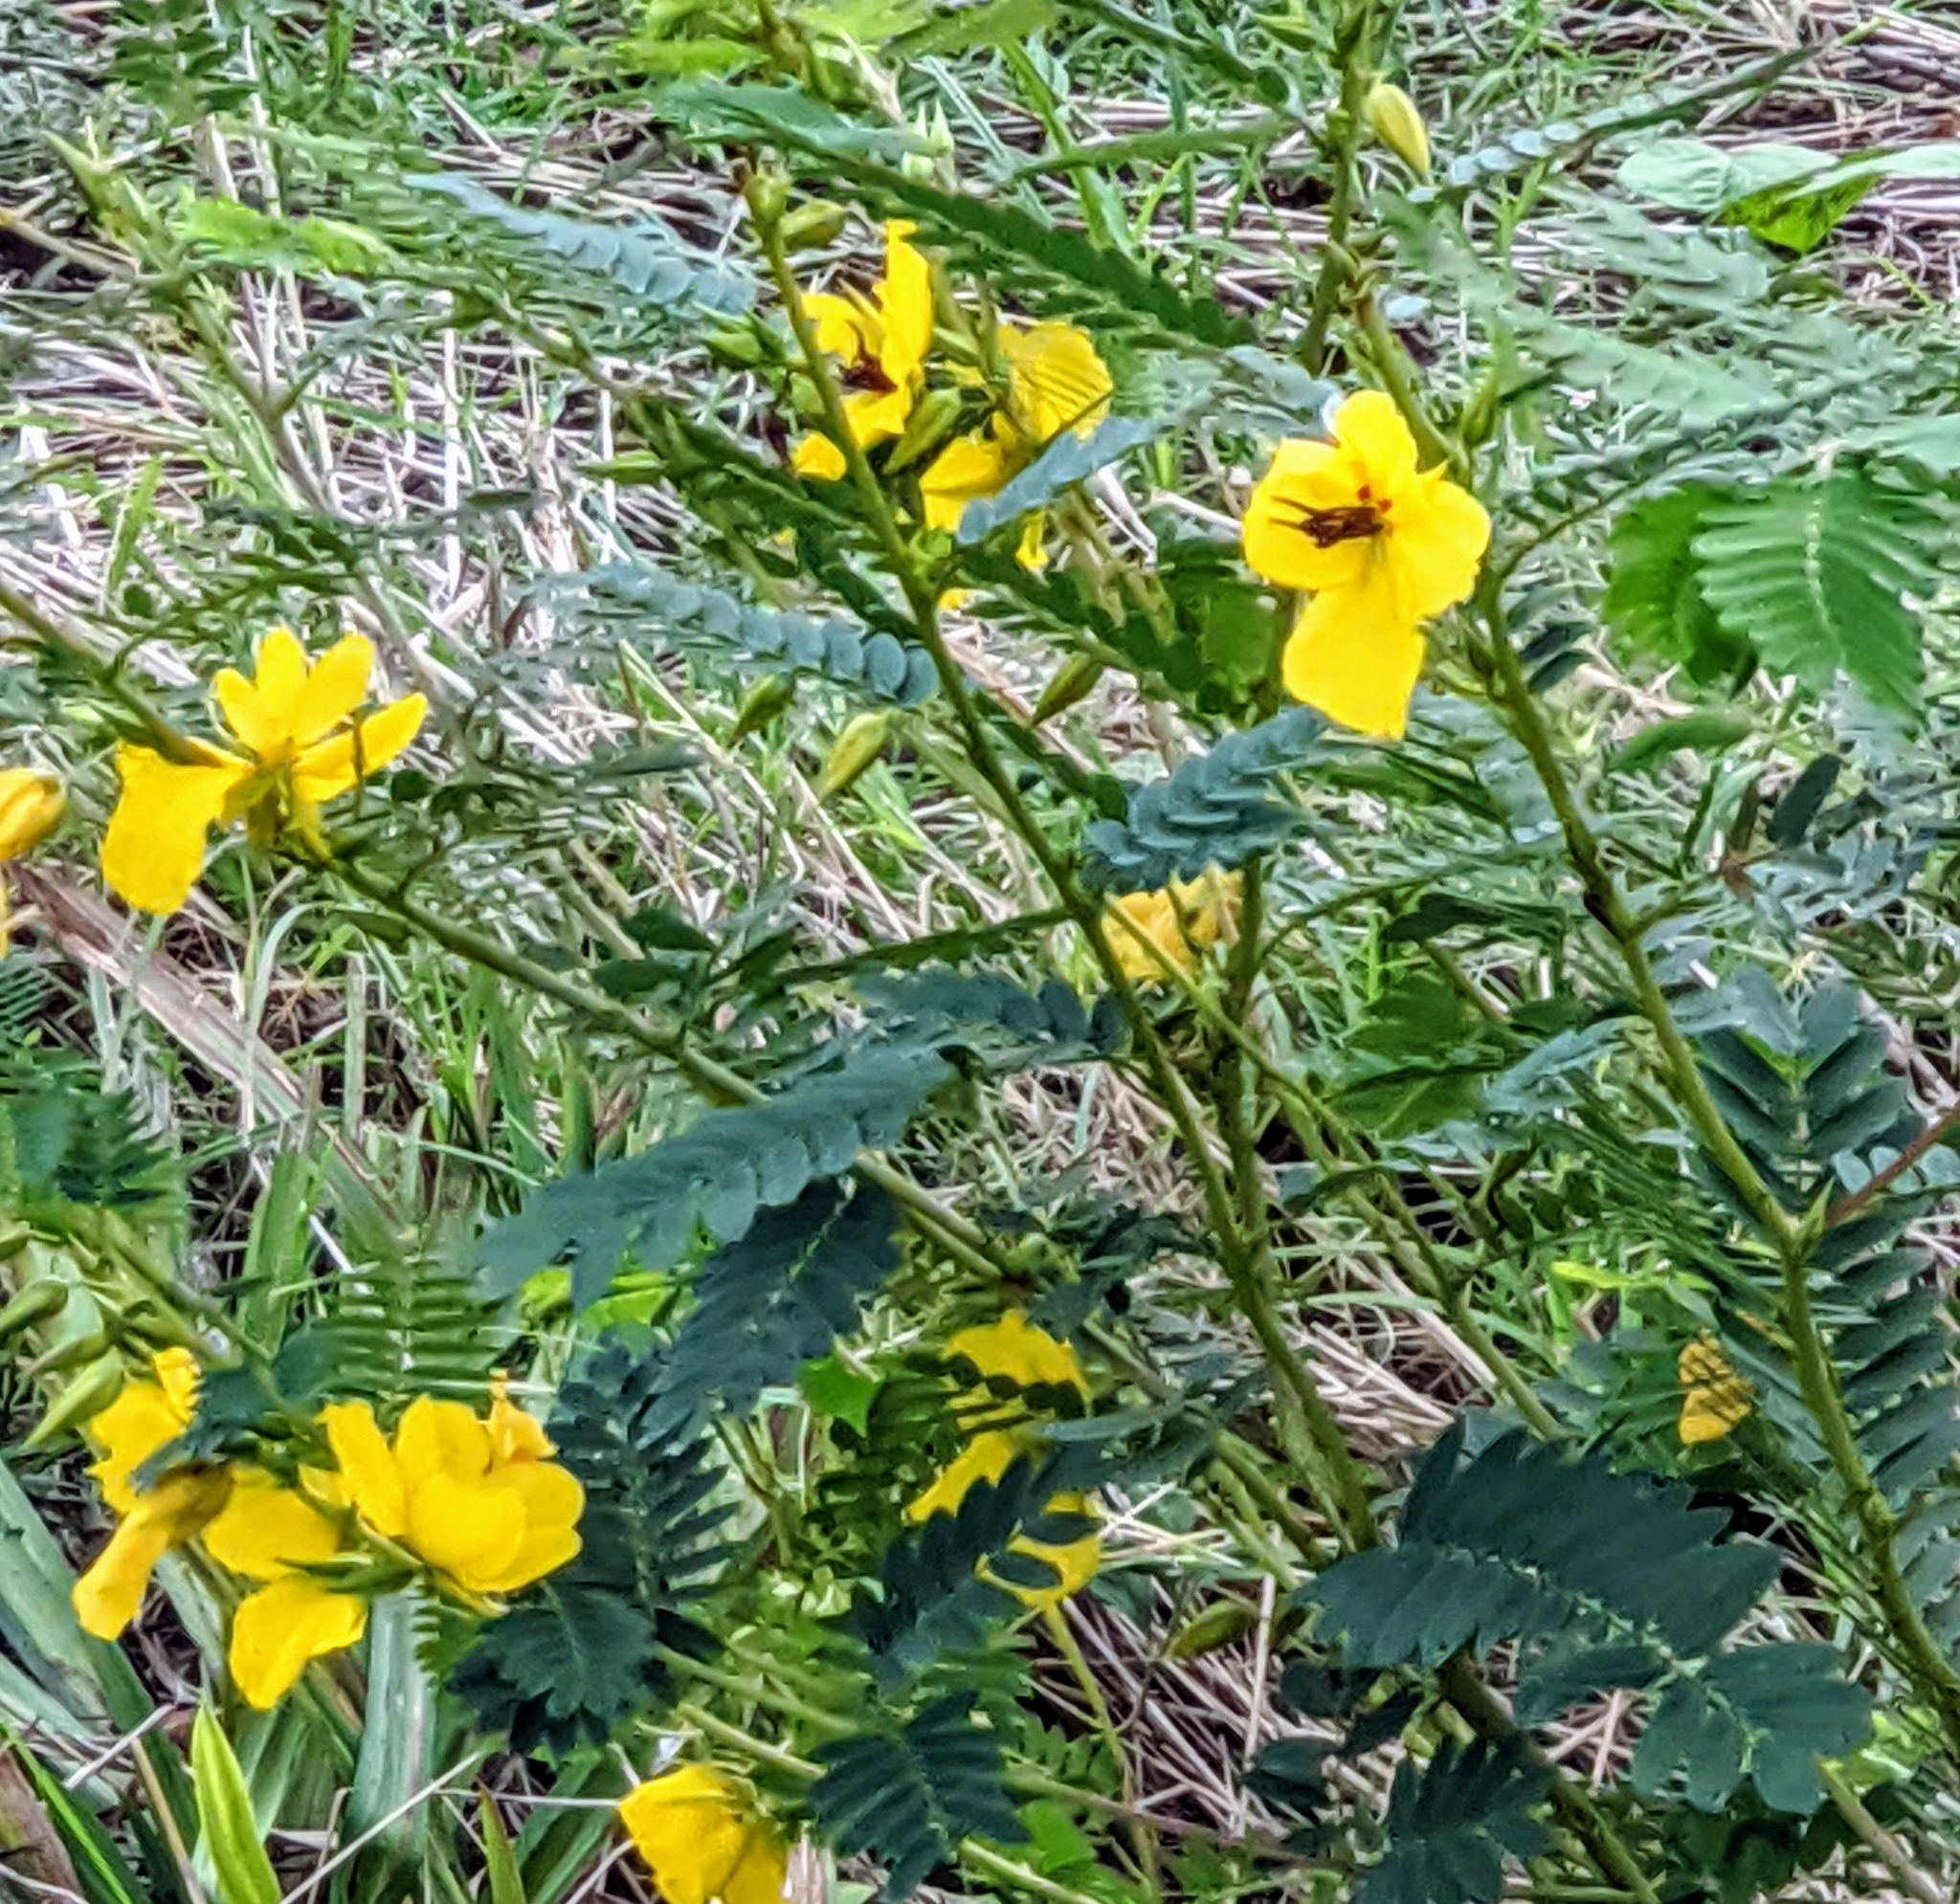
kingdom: Plantae
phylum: Tracheophyta
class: Magnoliopsida
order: Fabales
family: Fabaceae
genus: Chamaecrista
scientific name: Chamaecrista fasciculata
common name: Golden cassia
